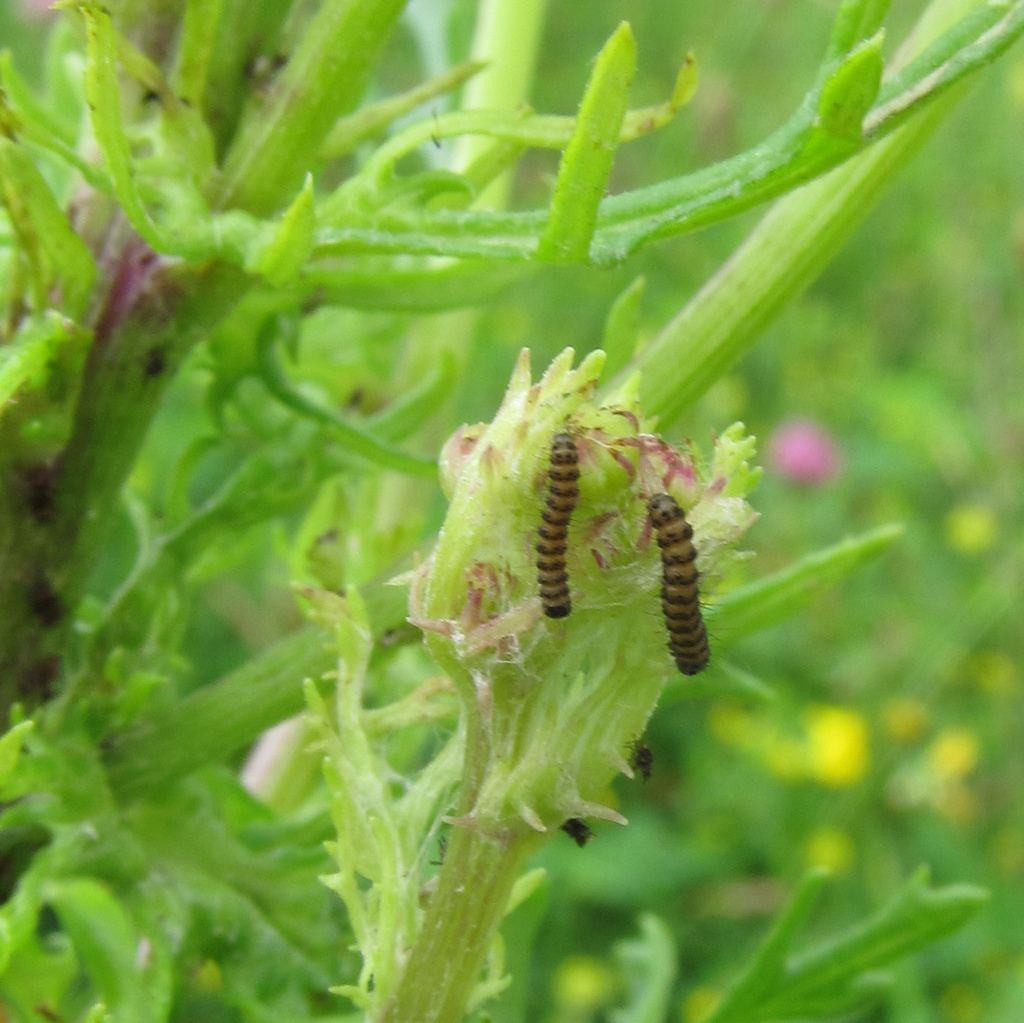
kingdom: Animalia
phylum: Arthropoda
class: Insecta
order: Lepidoptera
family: Erebidae
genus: Tyria
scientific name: Tyria jacobaeae
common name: Cinnabar
